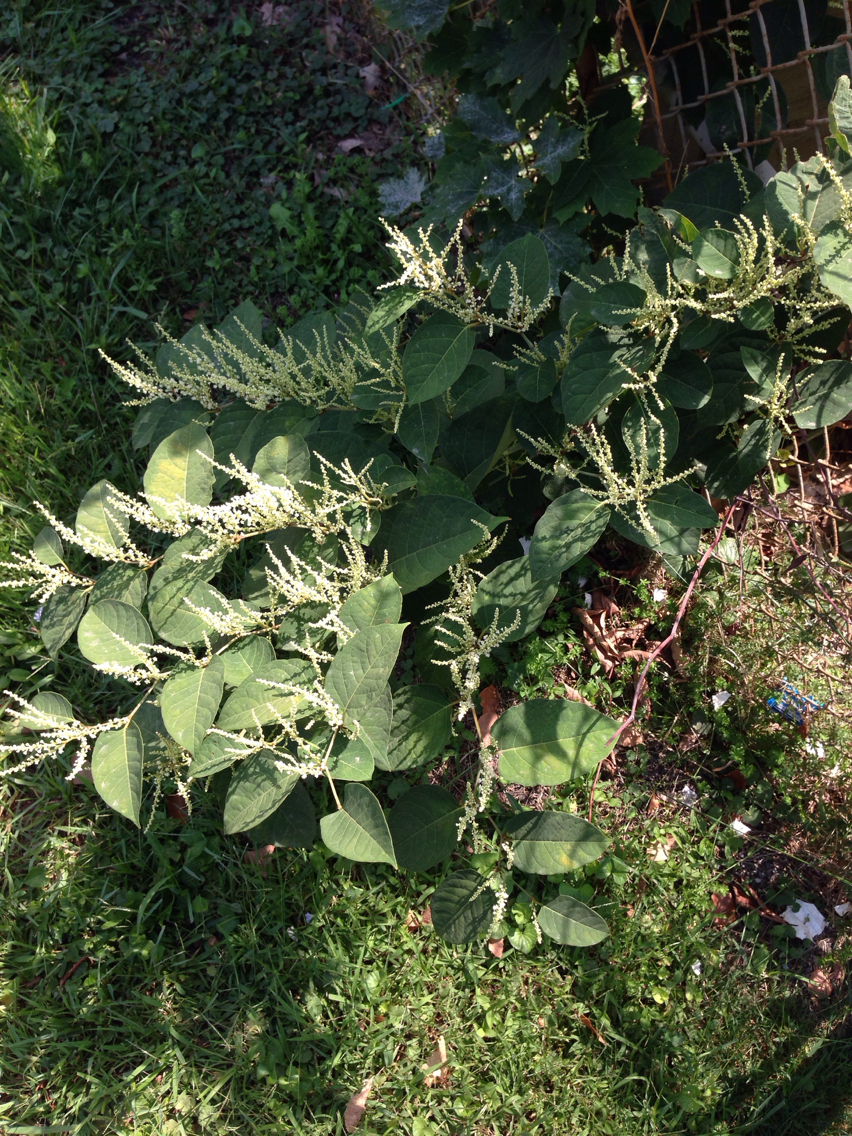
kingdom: Plantae
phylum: Tracheophyta
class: Magnoliopsida
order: Caryophyllales
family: Polygonaceae
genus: Reynoutria
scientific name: Reynoutria japonica
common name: Japanese knotweed
